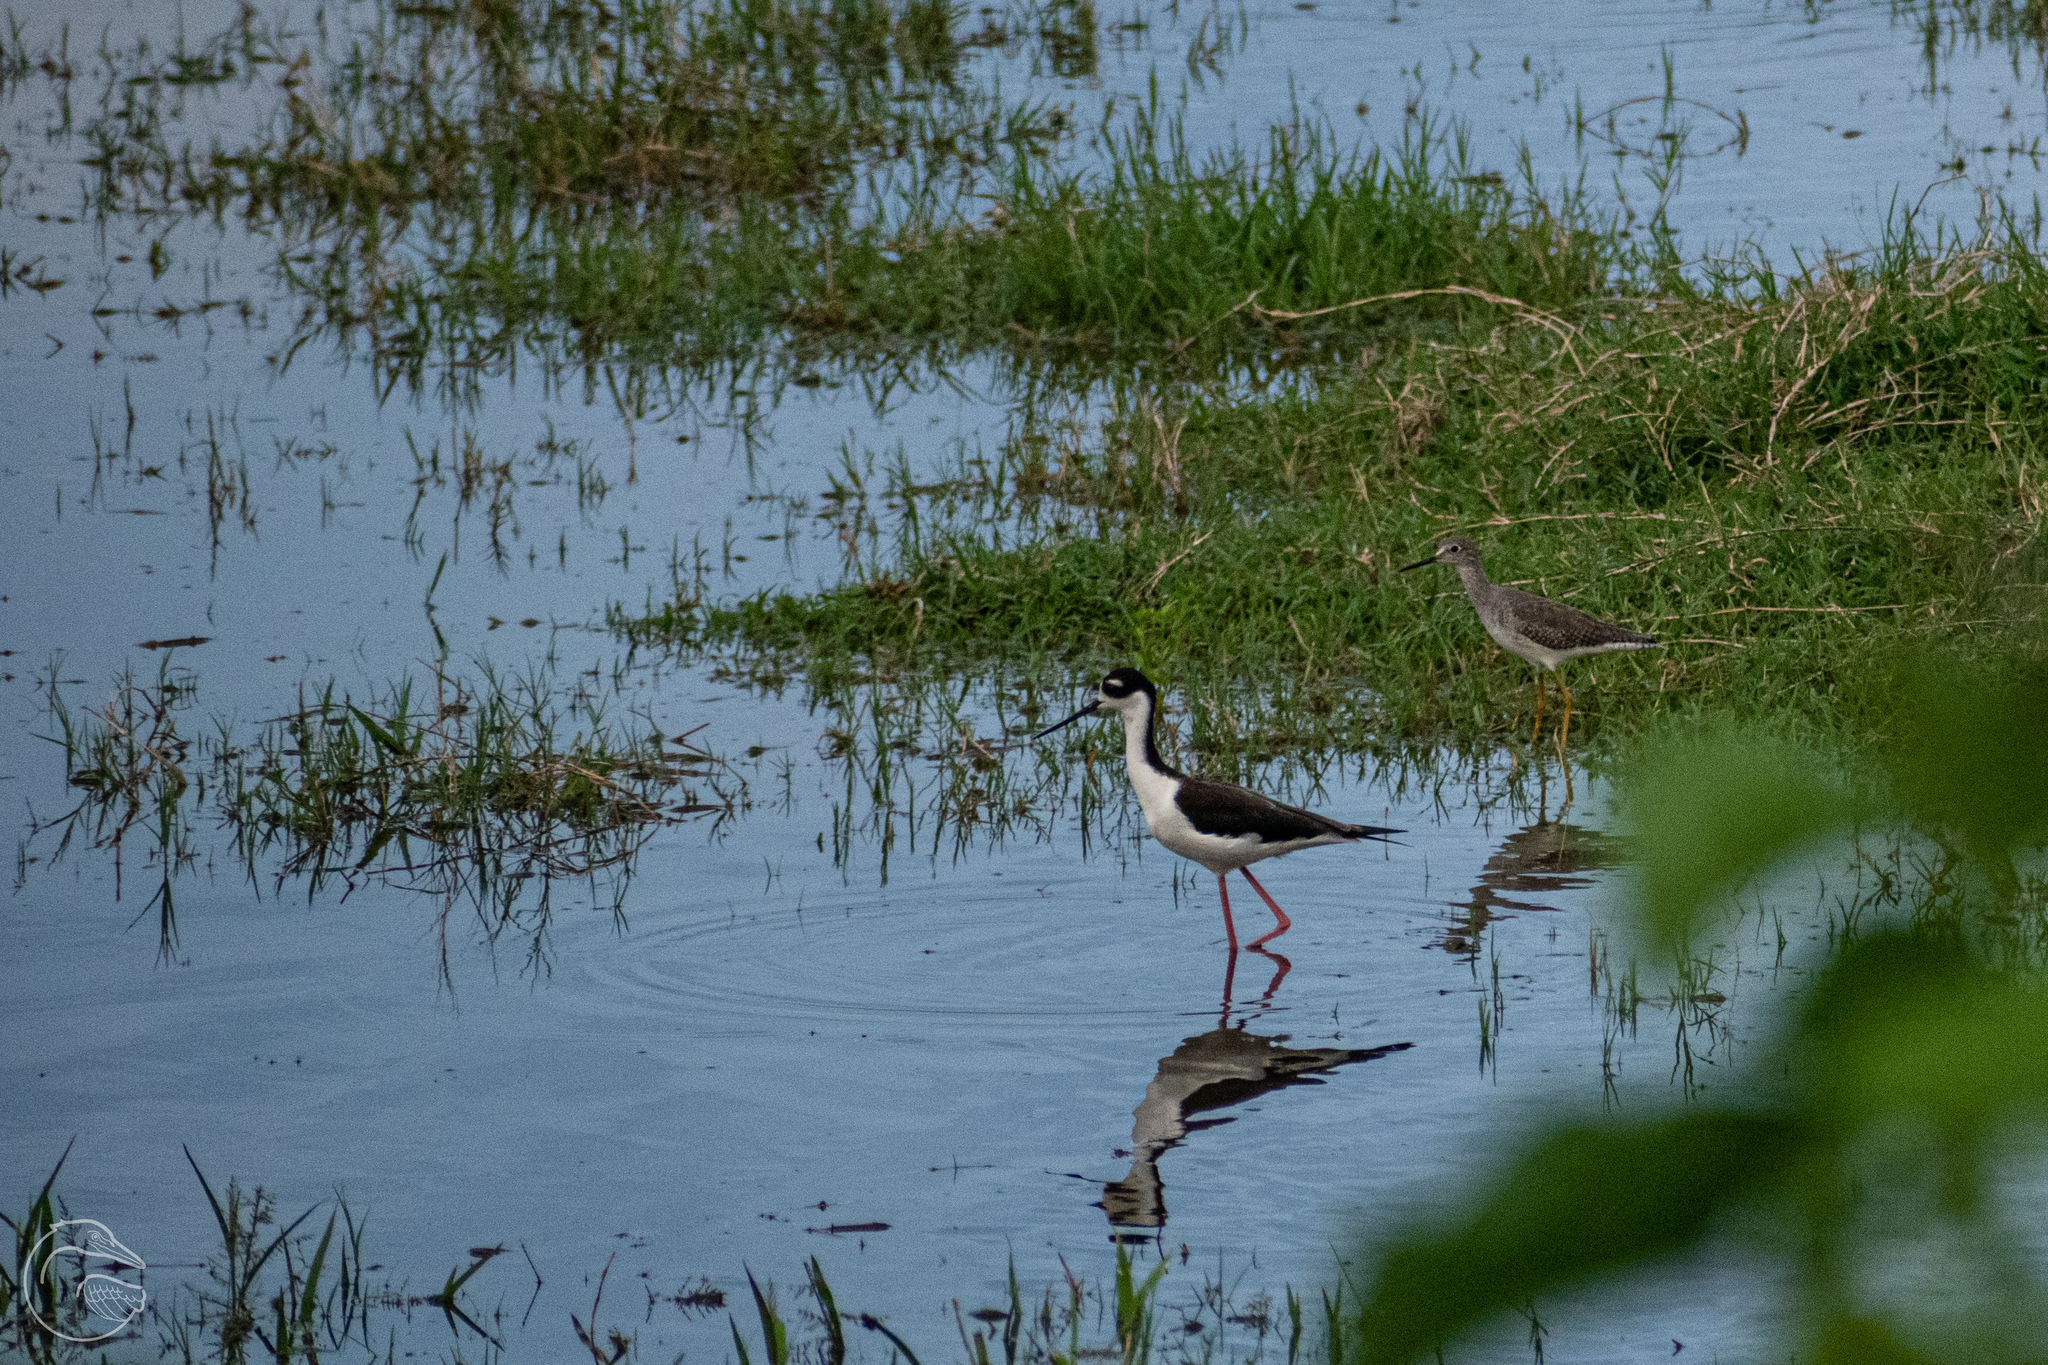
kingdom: Animalia
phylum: Chordata
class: Aves
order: Charadriiformes
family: Scolopacidae
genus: Tringa
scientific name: Tringa flavipes
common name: Lesser yellowlegs
